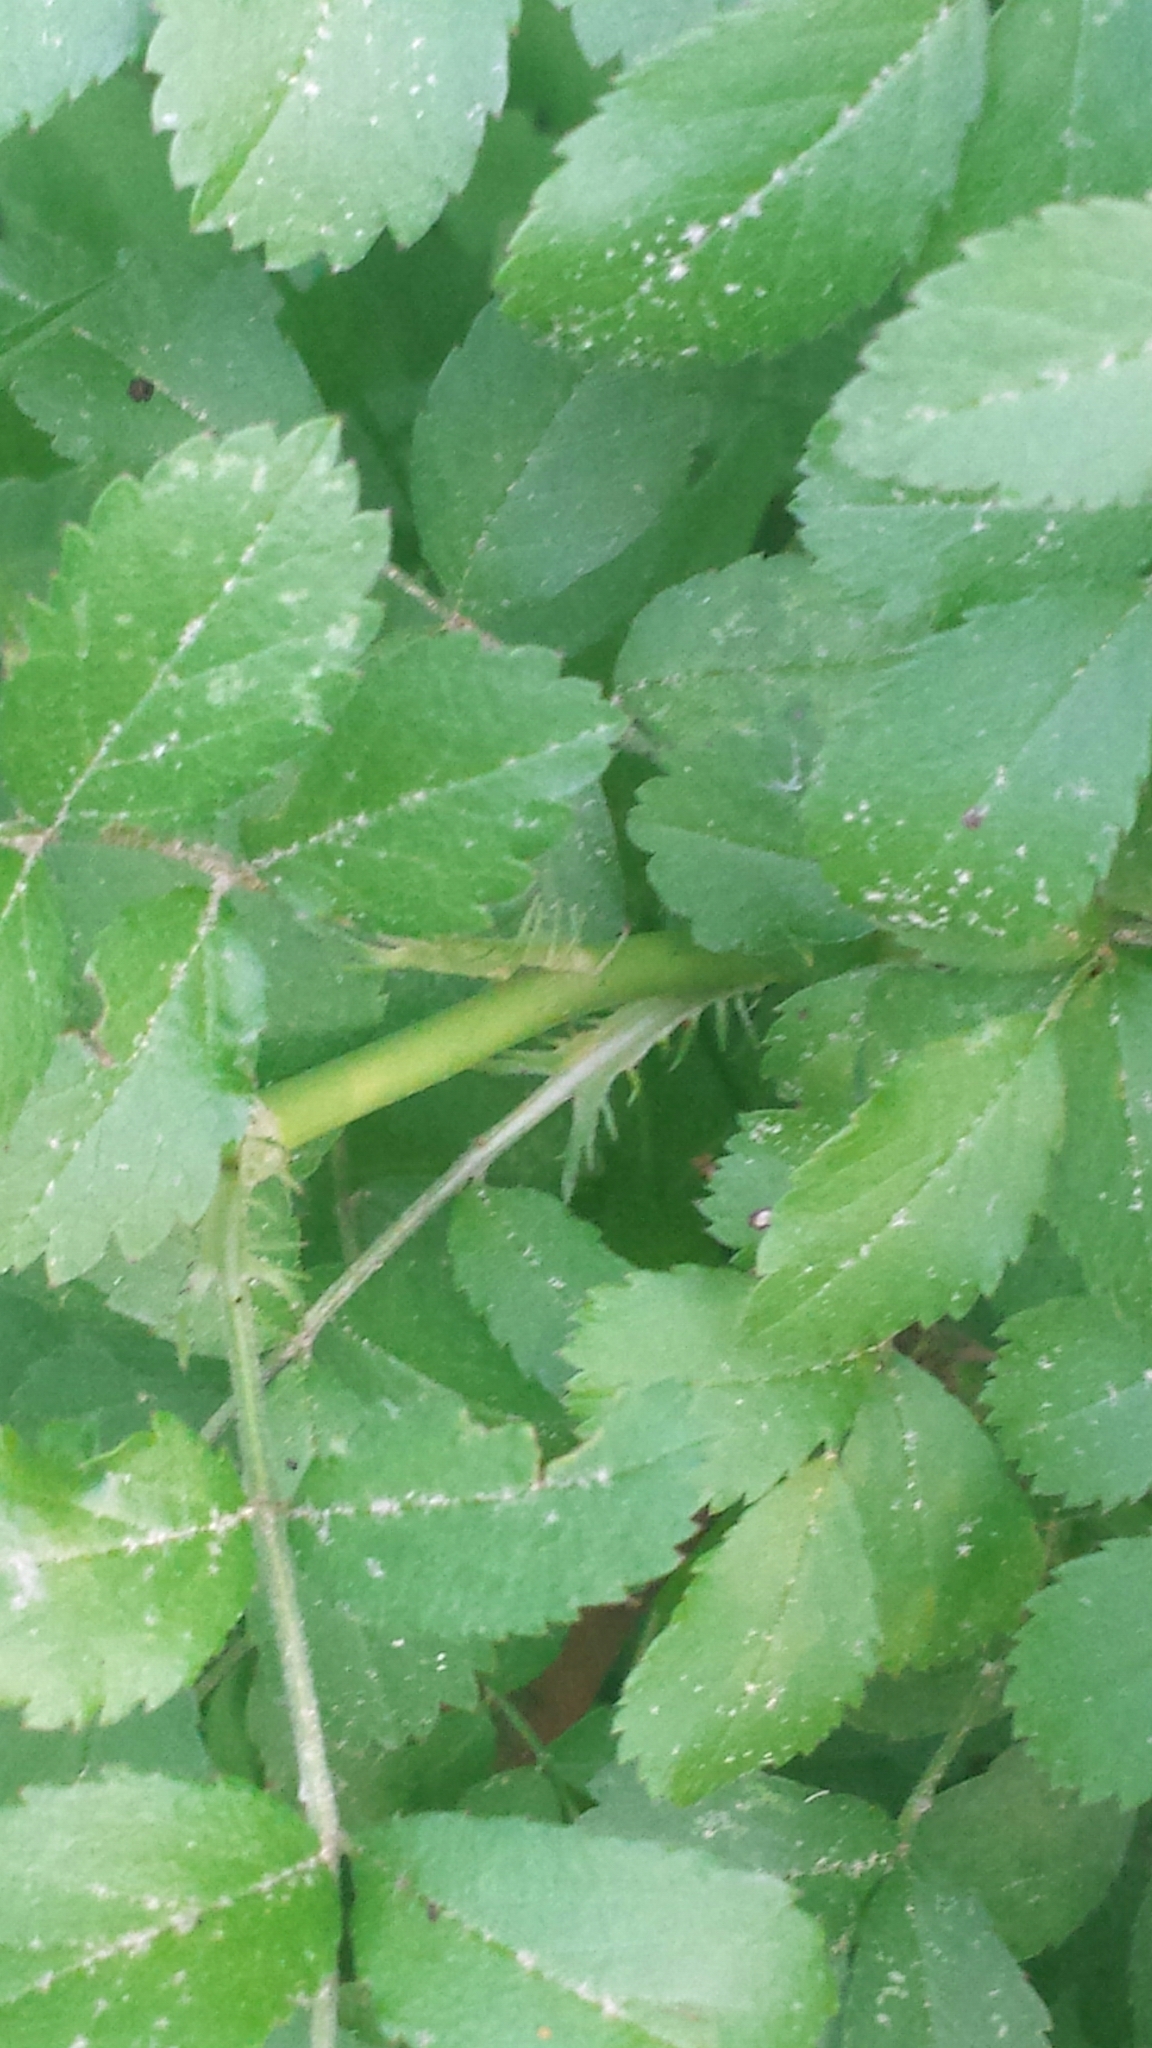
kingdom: Plantae
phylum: Tracheophyta
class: Magnoliopsida
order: Rosales
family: Rosaceae
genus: Rosa
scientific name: Rosa multiflora
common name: Multiflora rose
